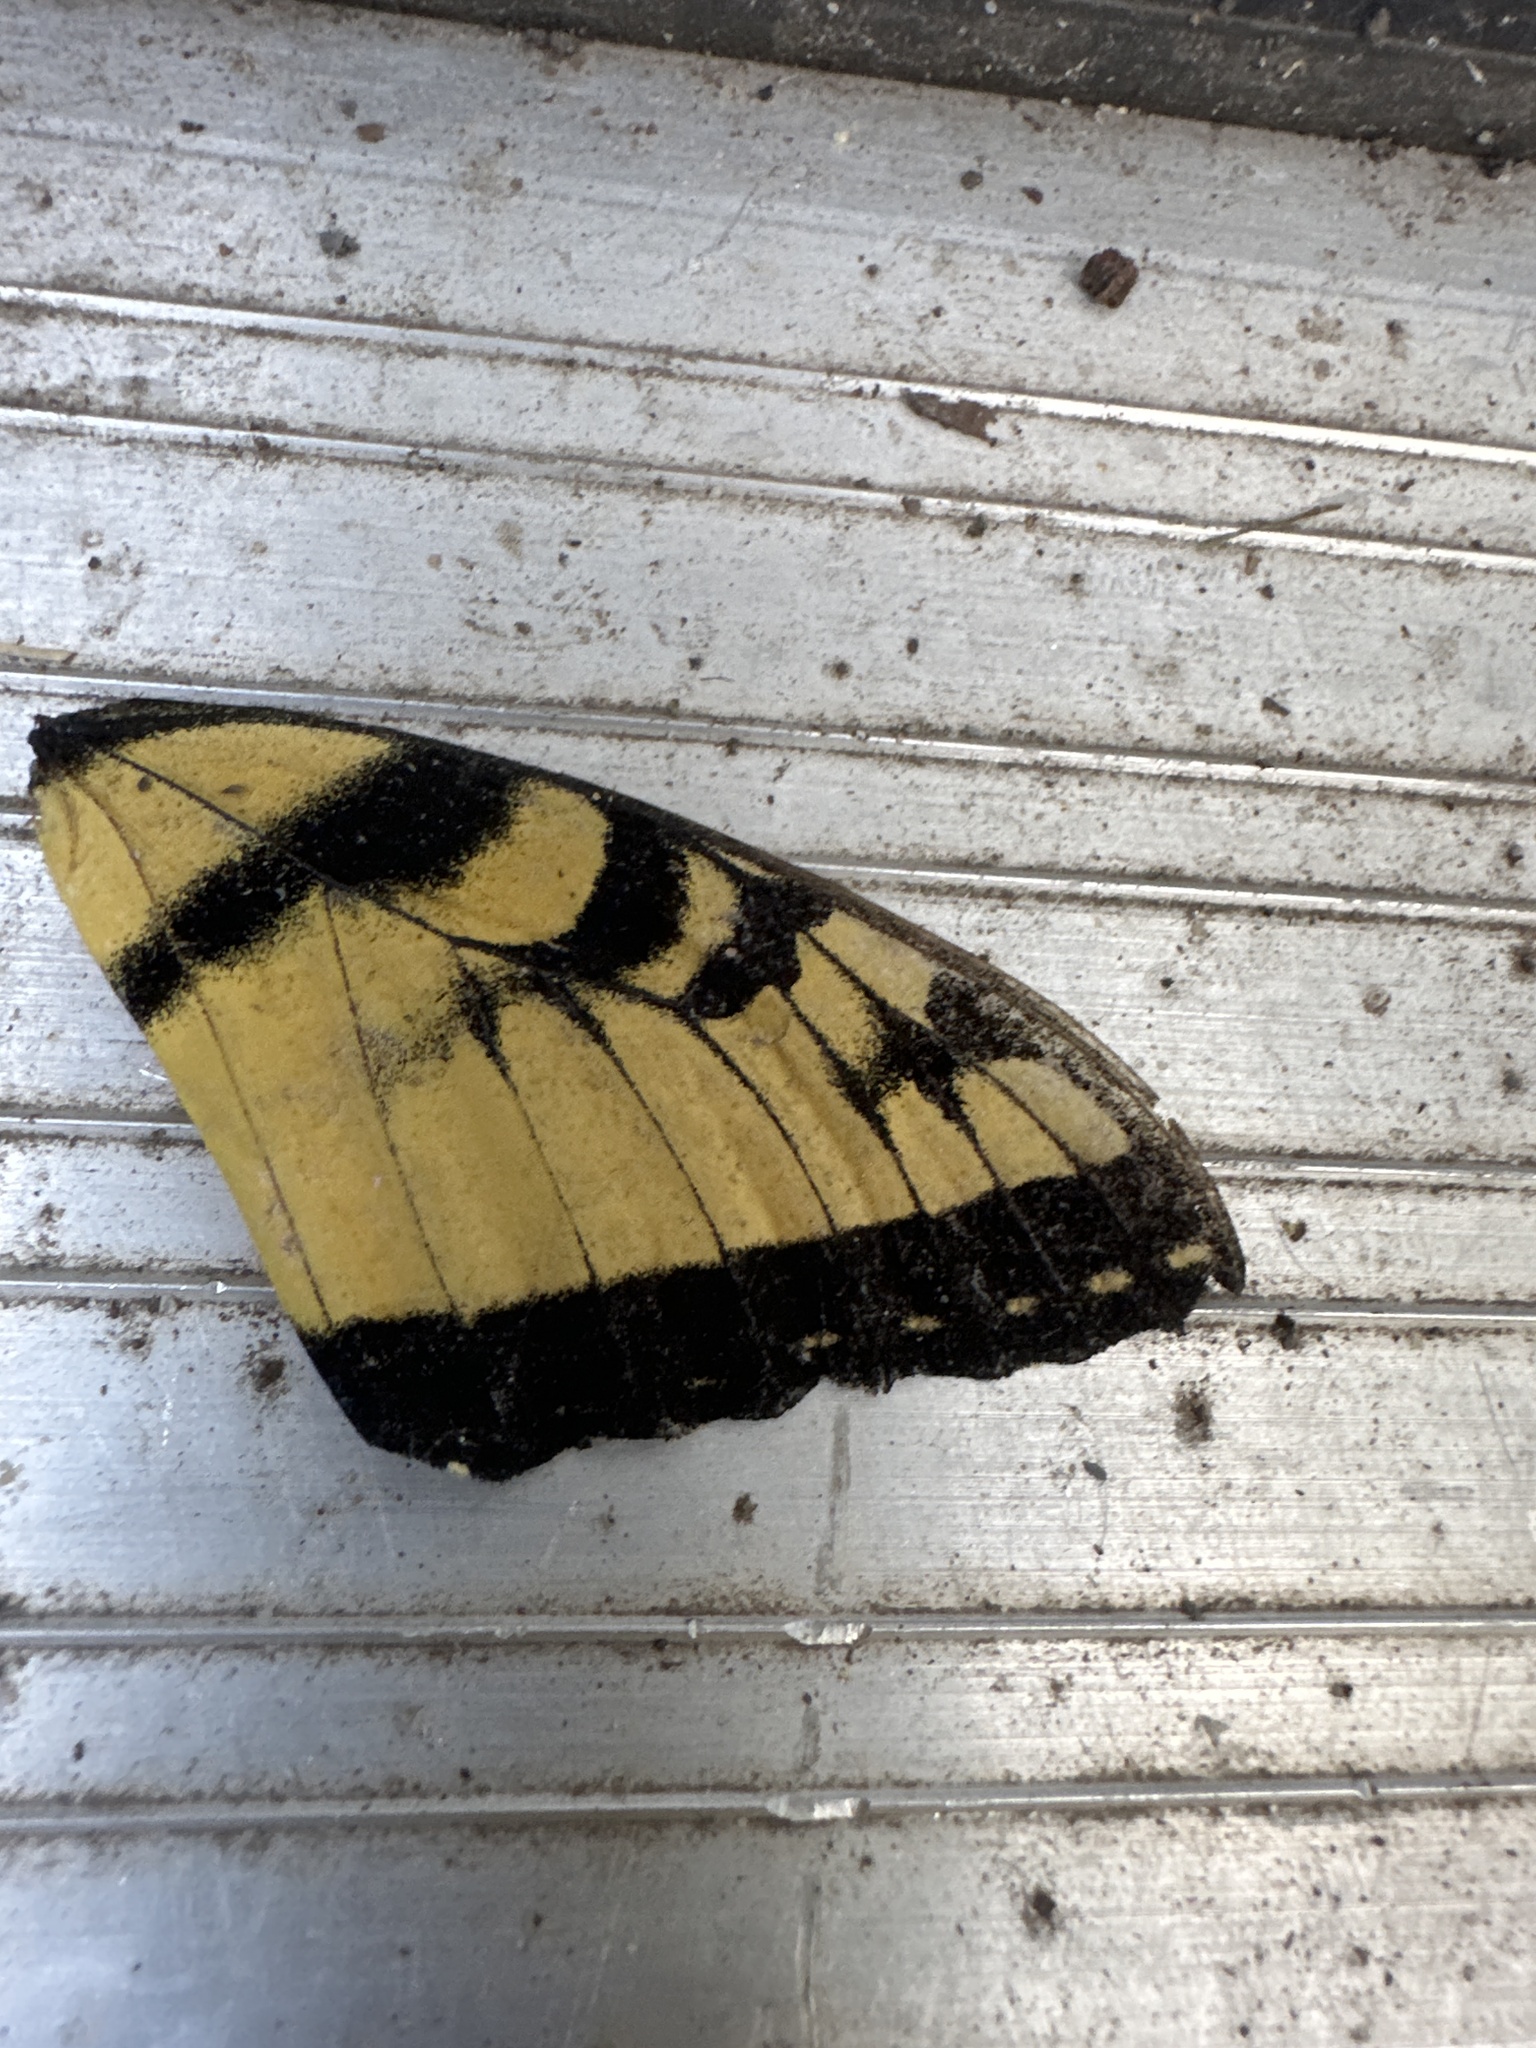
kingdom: Animalia
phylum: Arthropoda
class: Insecta
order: Lepidoptera
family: Papilionidae
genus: Papilio
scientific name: Papilio glaucus
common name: Tiger swallowtail
